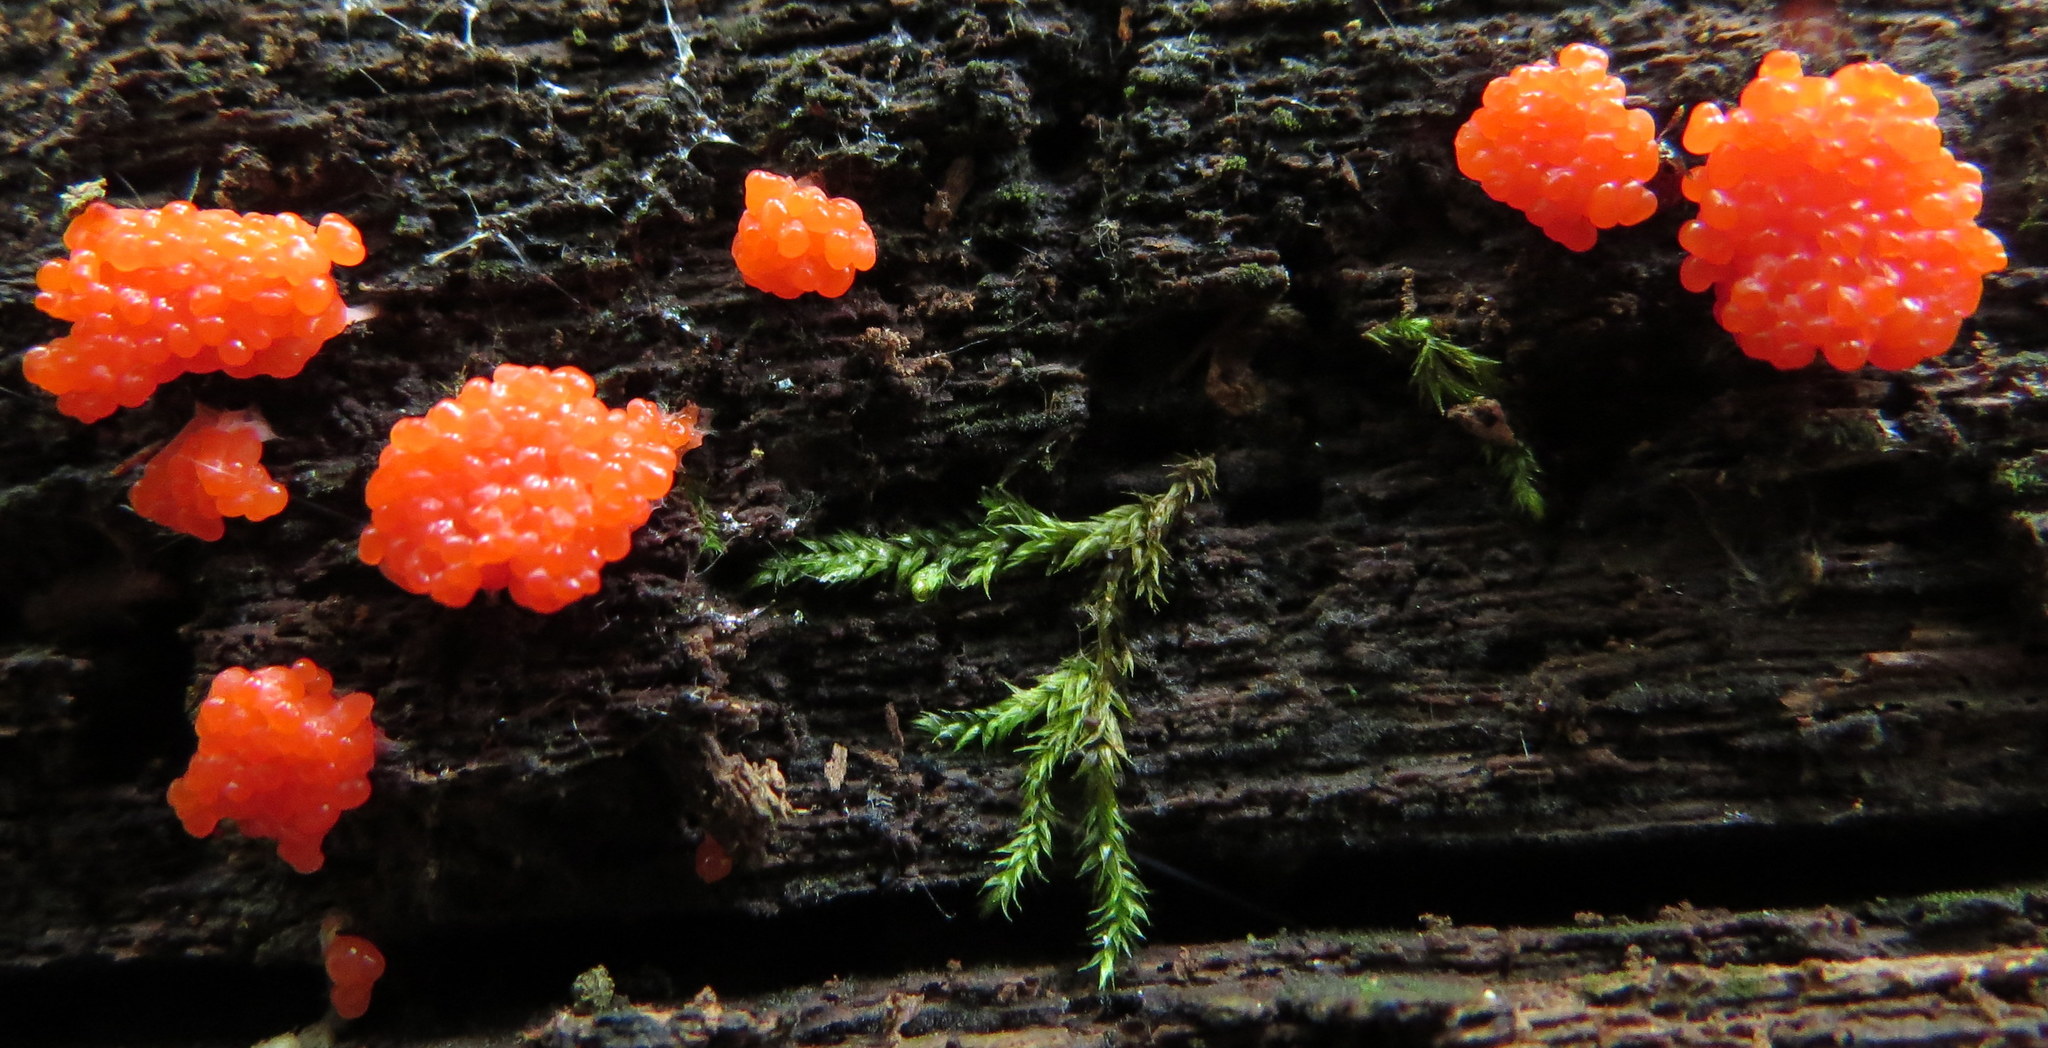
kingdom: Protozoa
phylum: Mycetozoa
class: Myxomycetes
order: Cribrariales
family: Tubiferaceae
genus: Tubifera
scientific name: Tubifera ferruginosa
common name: Red raspberry slime mold
